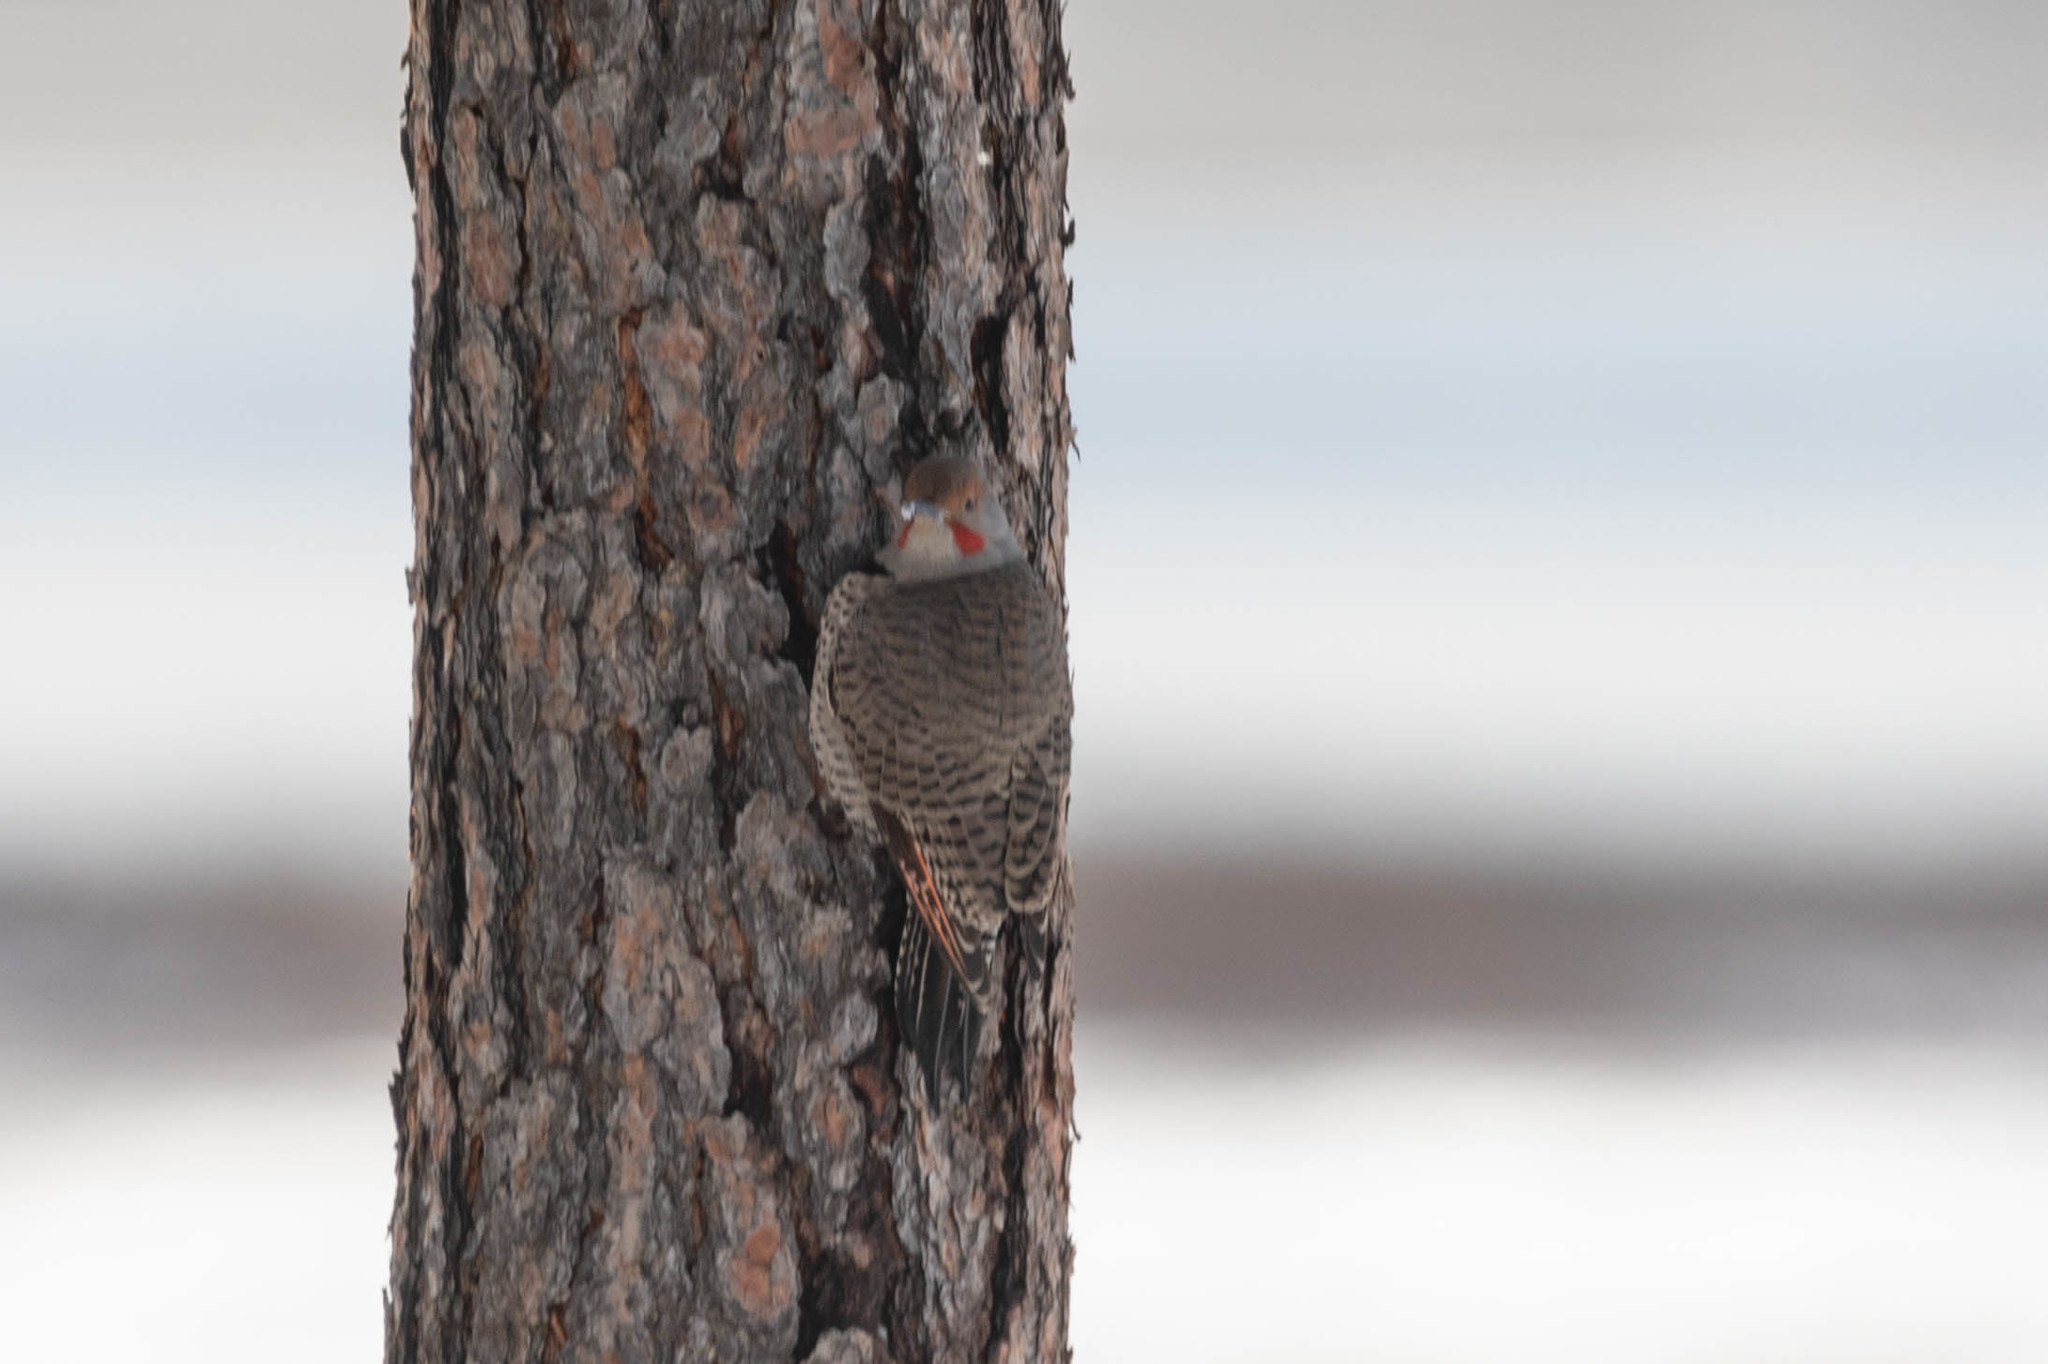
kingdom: Animalia
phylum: Chordata
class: Aves
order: Piciformes
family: Picidae
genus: Colaptes
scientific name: Colaptes auratus
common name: Northern flicker
